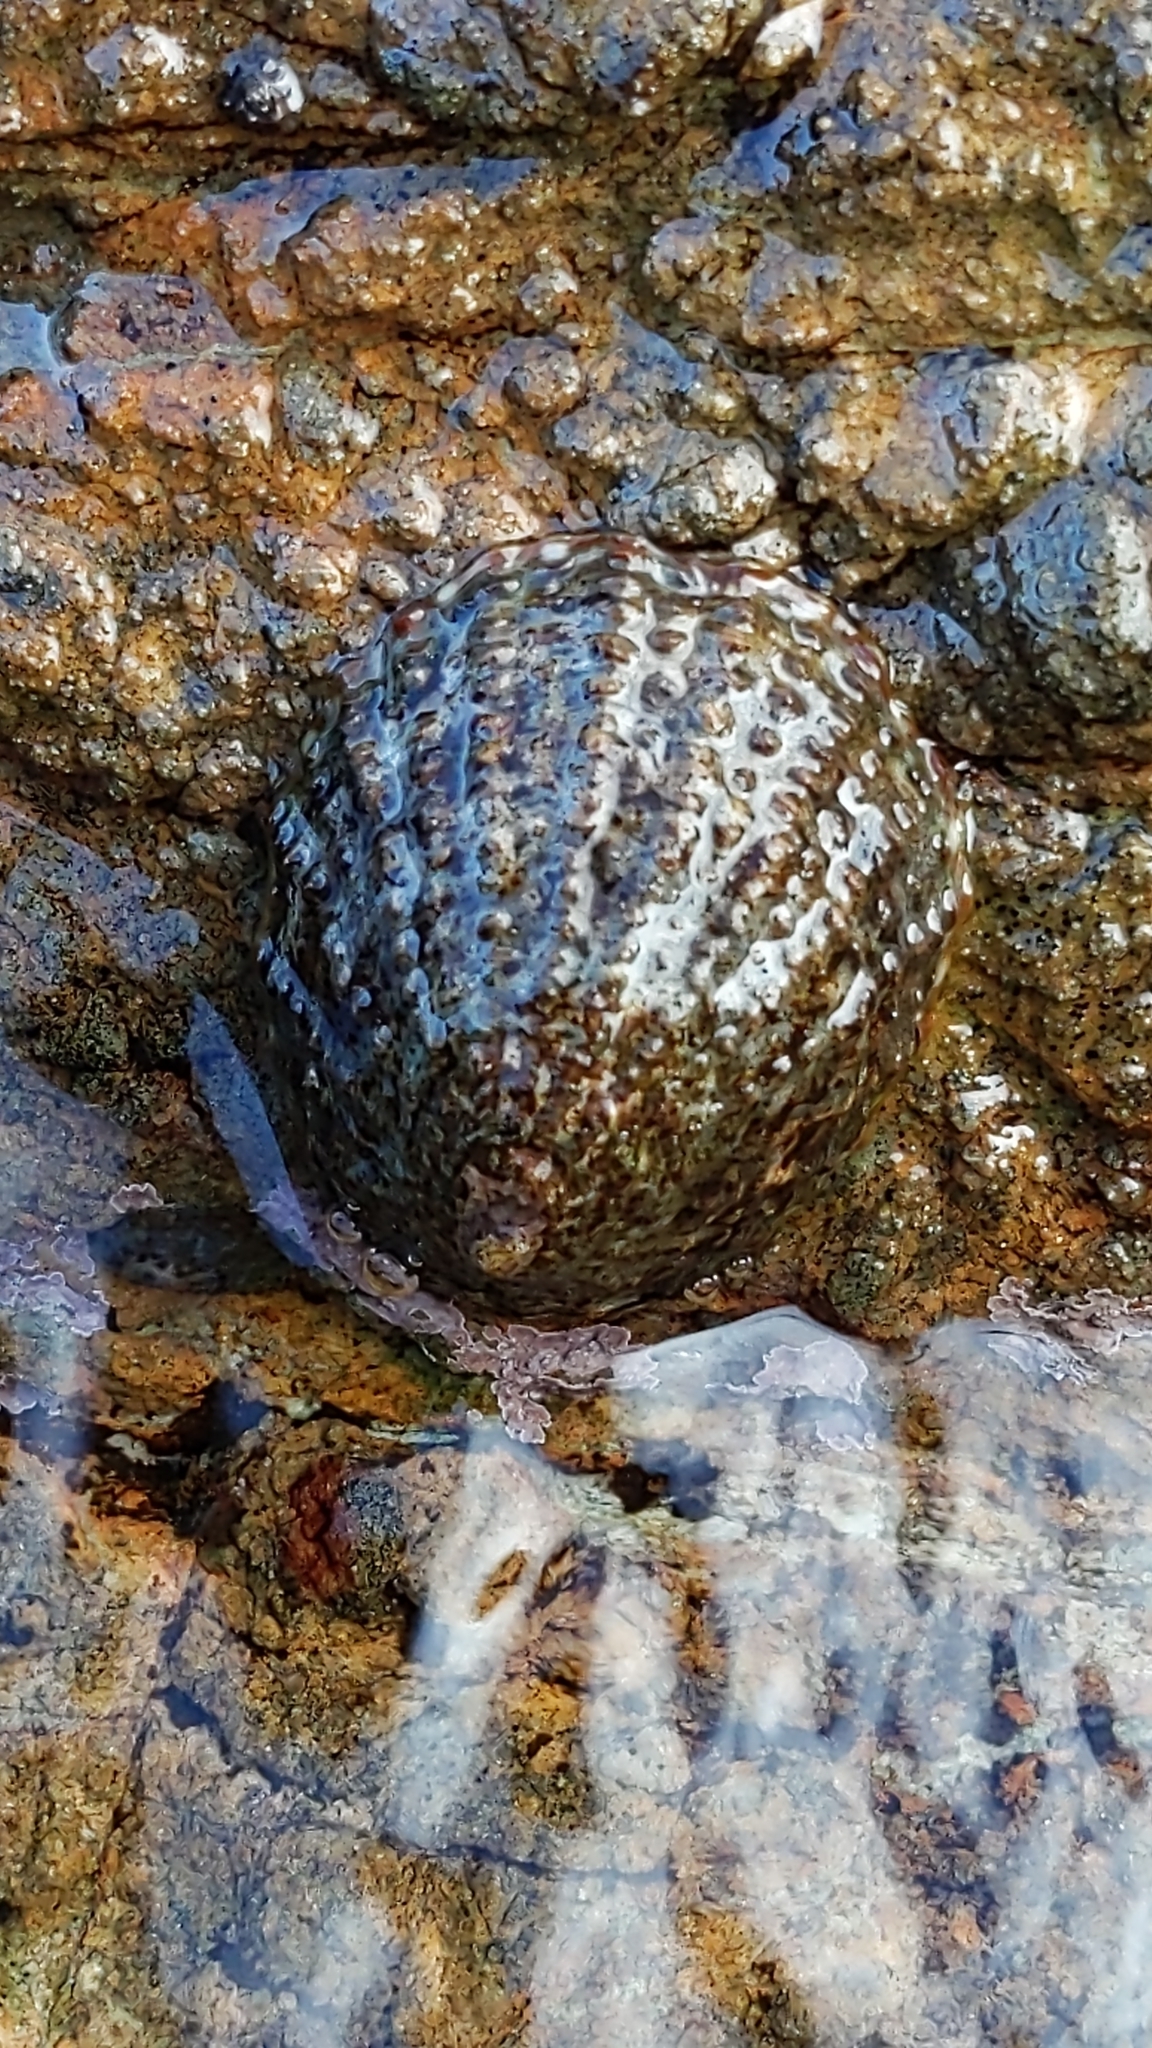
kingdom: Animalia
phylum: Mollusca
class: Gastropoda
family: Nacellidae
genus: Cellana
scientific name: Cellana denticulata
